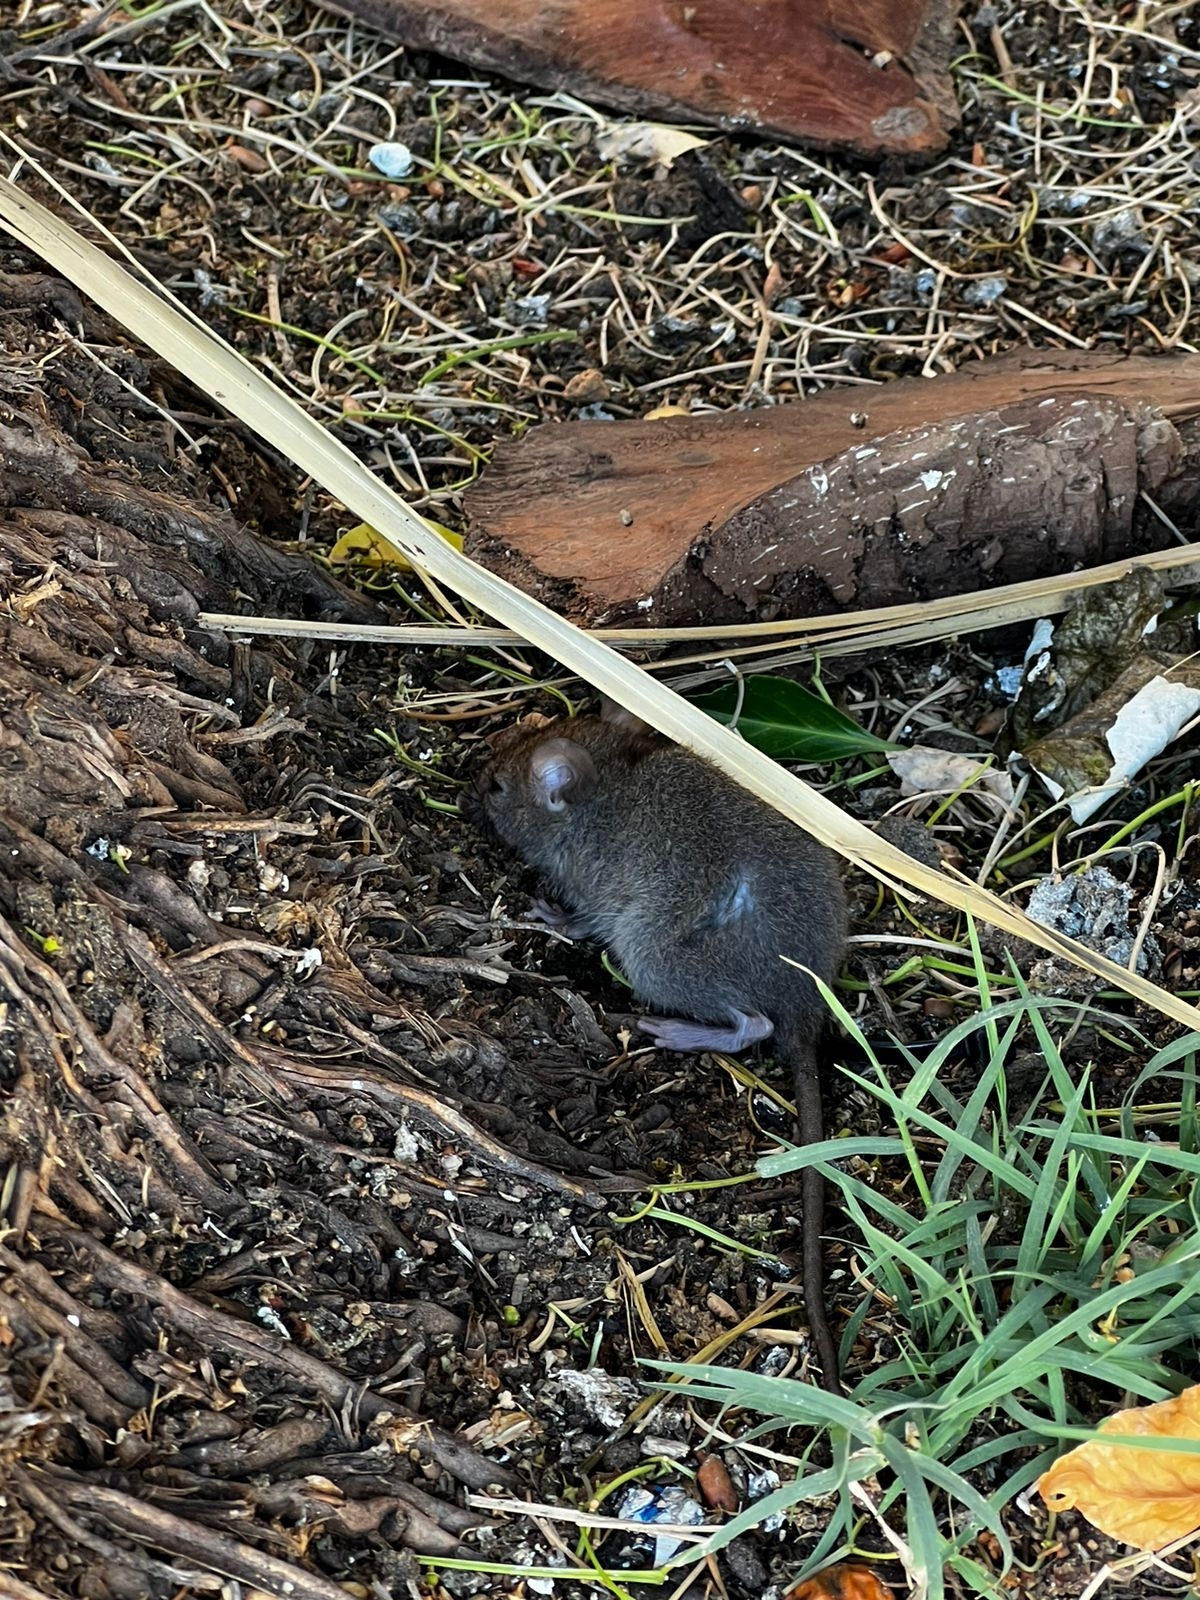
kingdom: Animalia
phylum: Chordata
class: Mammalia
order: Rodentia
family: Muridae
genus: Rattus
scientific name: Rattus rattus
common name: Black rat
